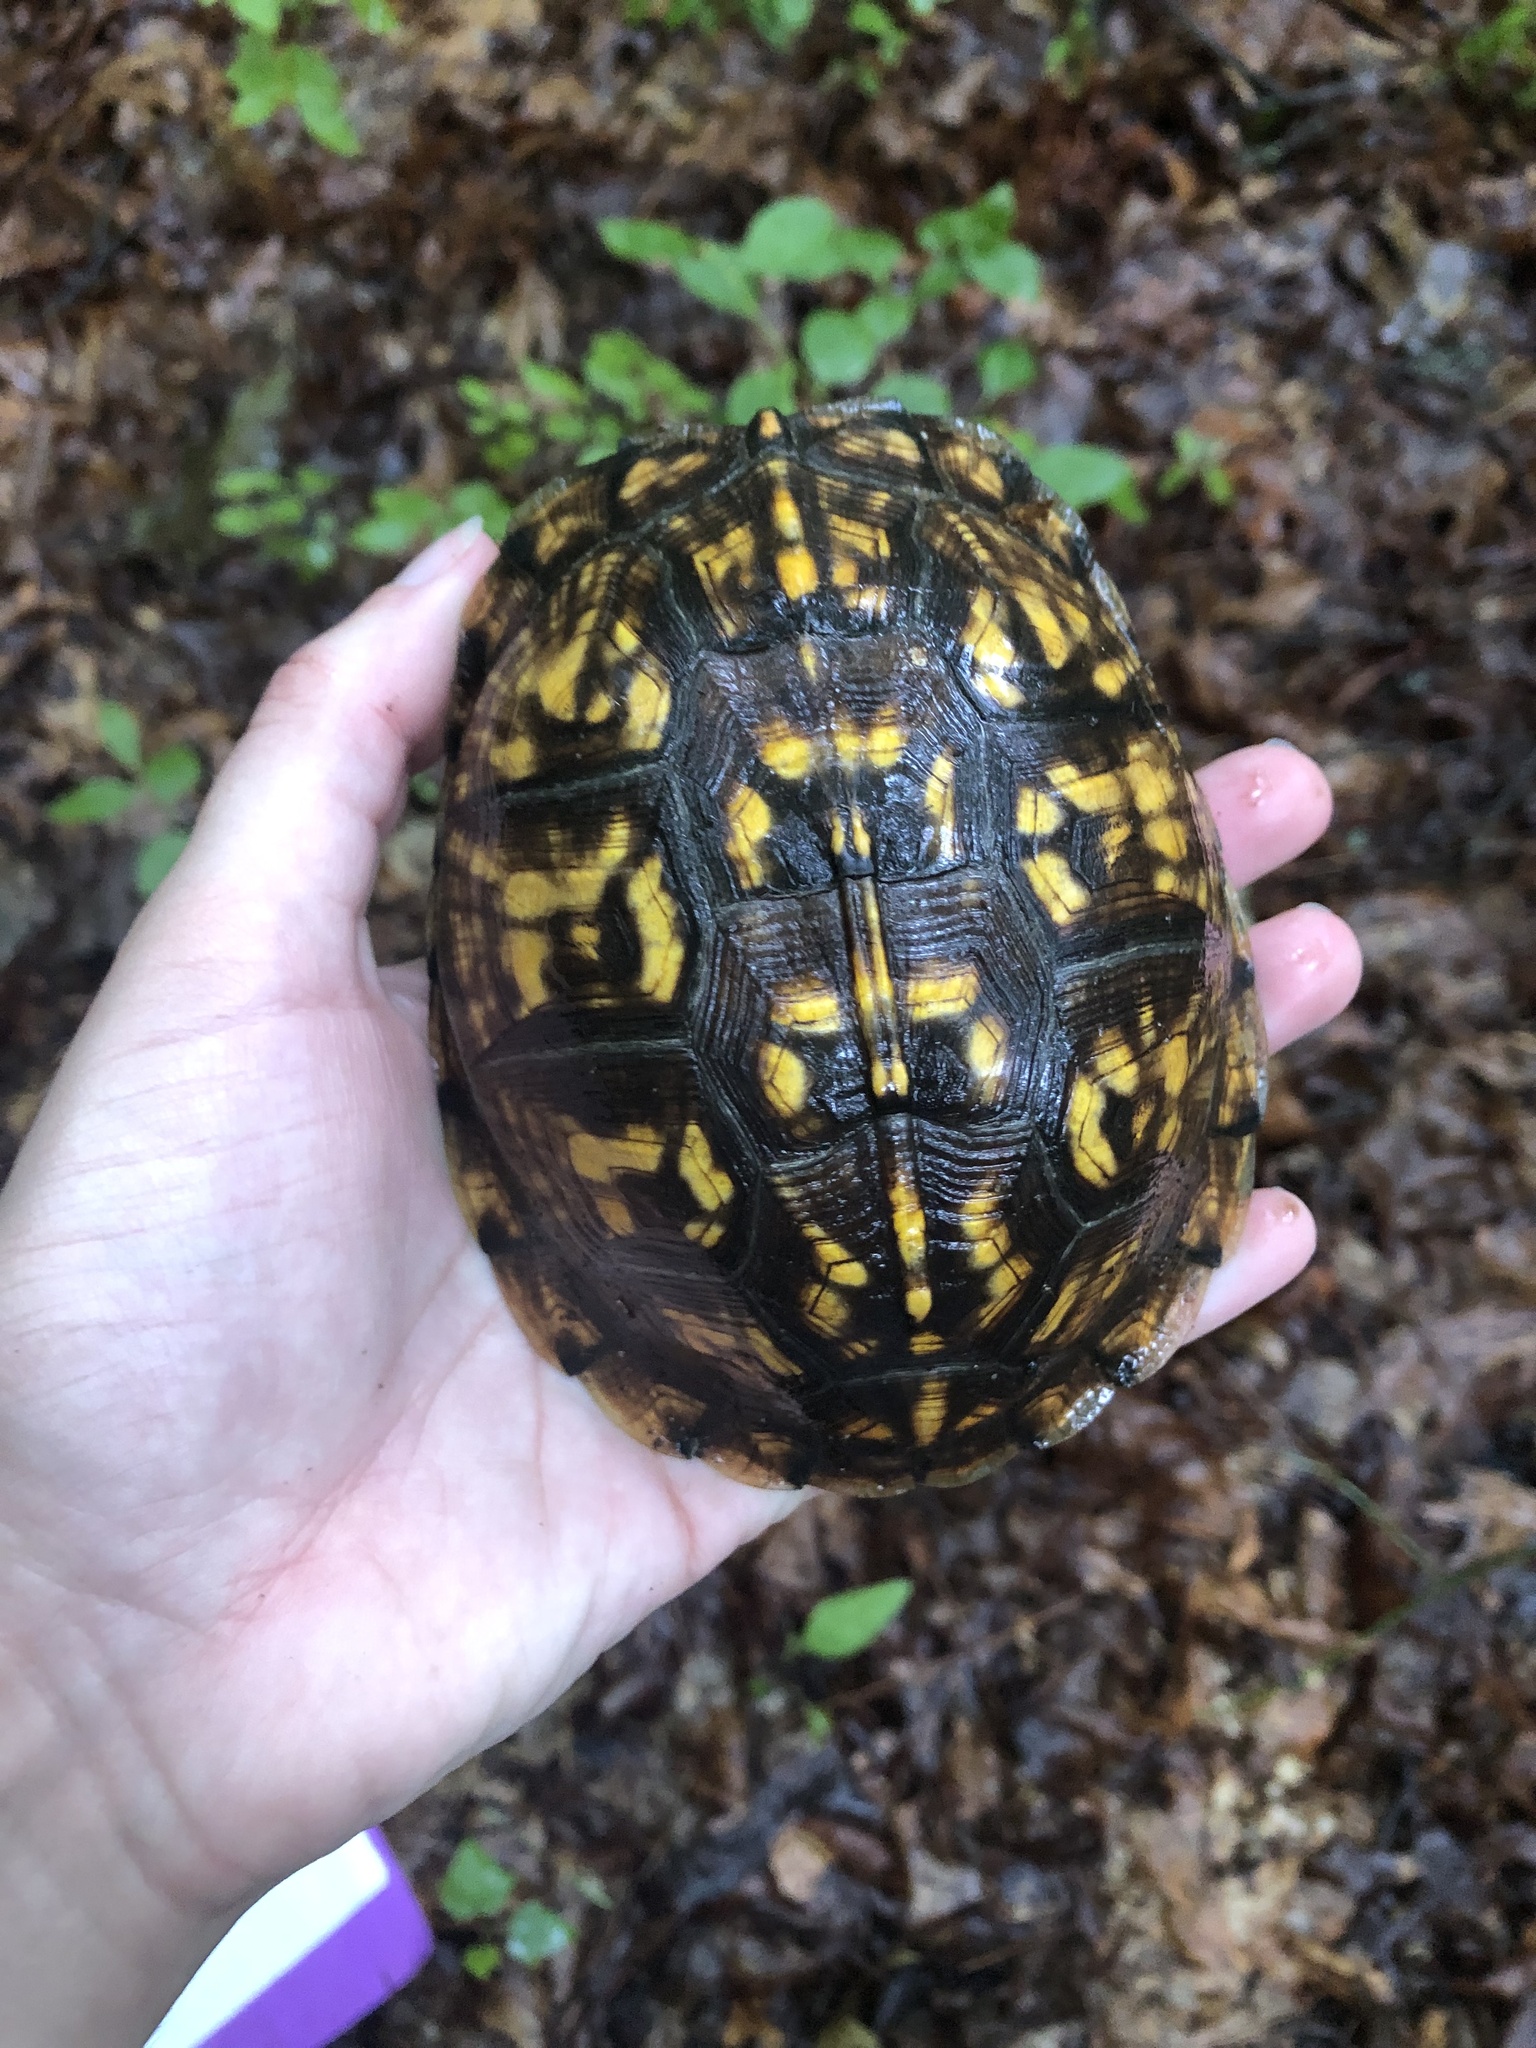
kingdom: Animalia
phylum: Chordata
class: Testudines
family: Emydidae
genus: Terrapene
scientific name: Terrapene carolina
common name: Common box turtle
